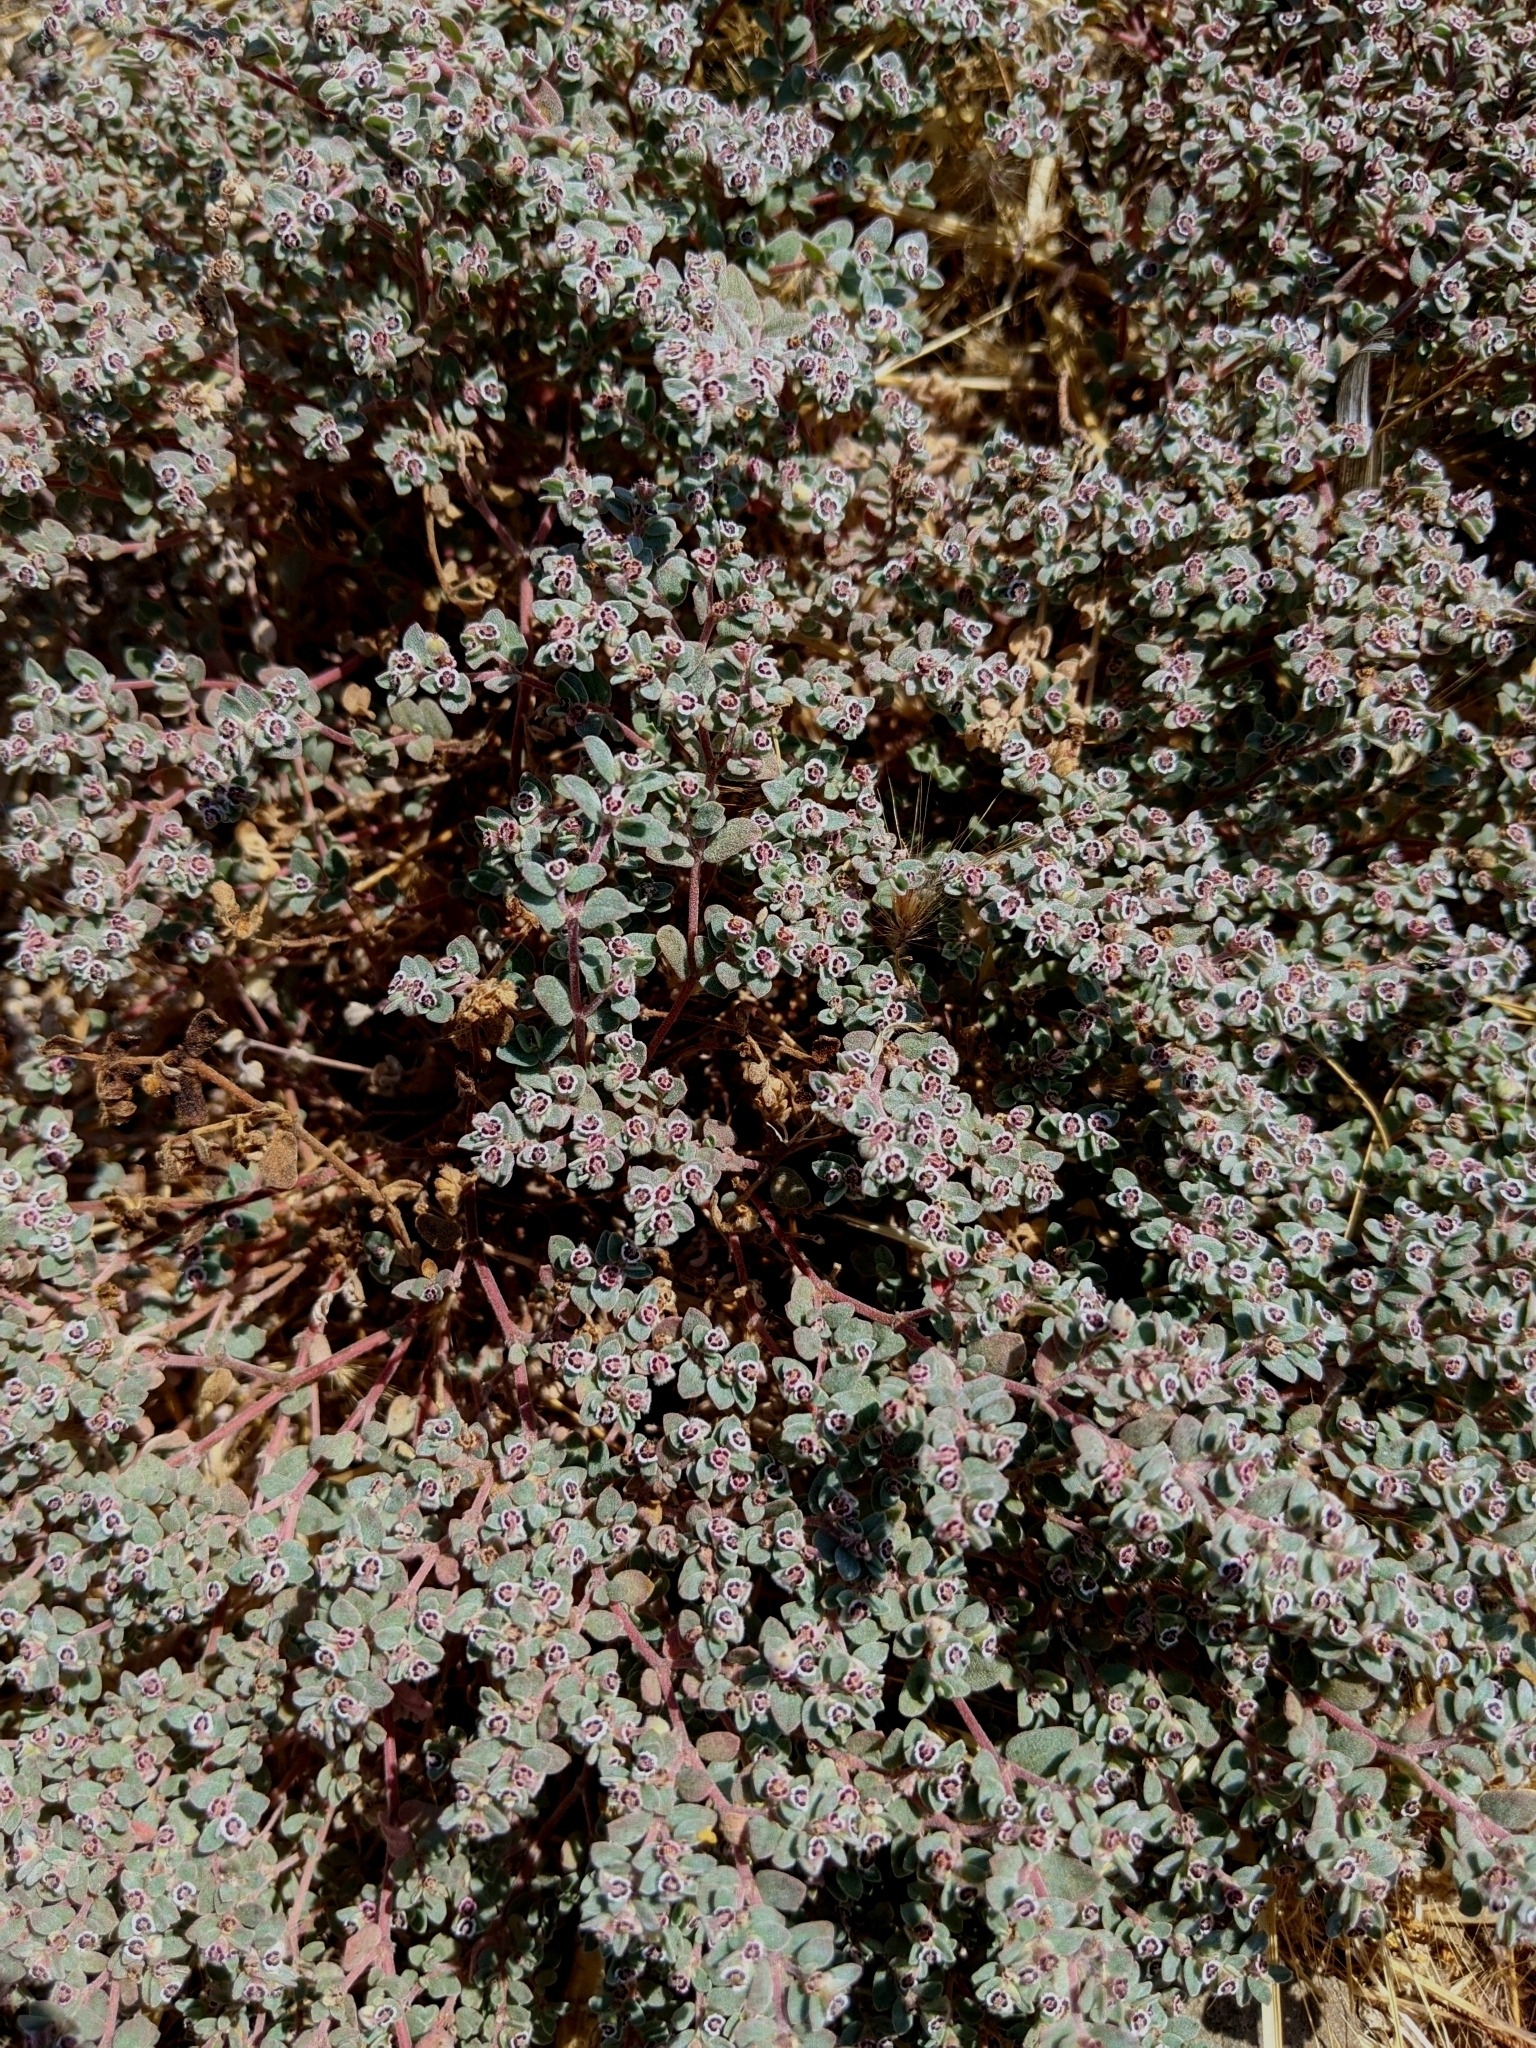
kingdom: Plantae
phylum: Tracheophyta
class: Magnoliopsida
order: Malpighiales
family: Euphorbiaceae
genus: Euphorbia
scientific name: Euphorbia melanadenia
